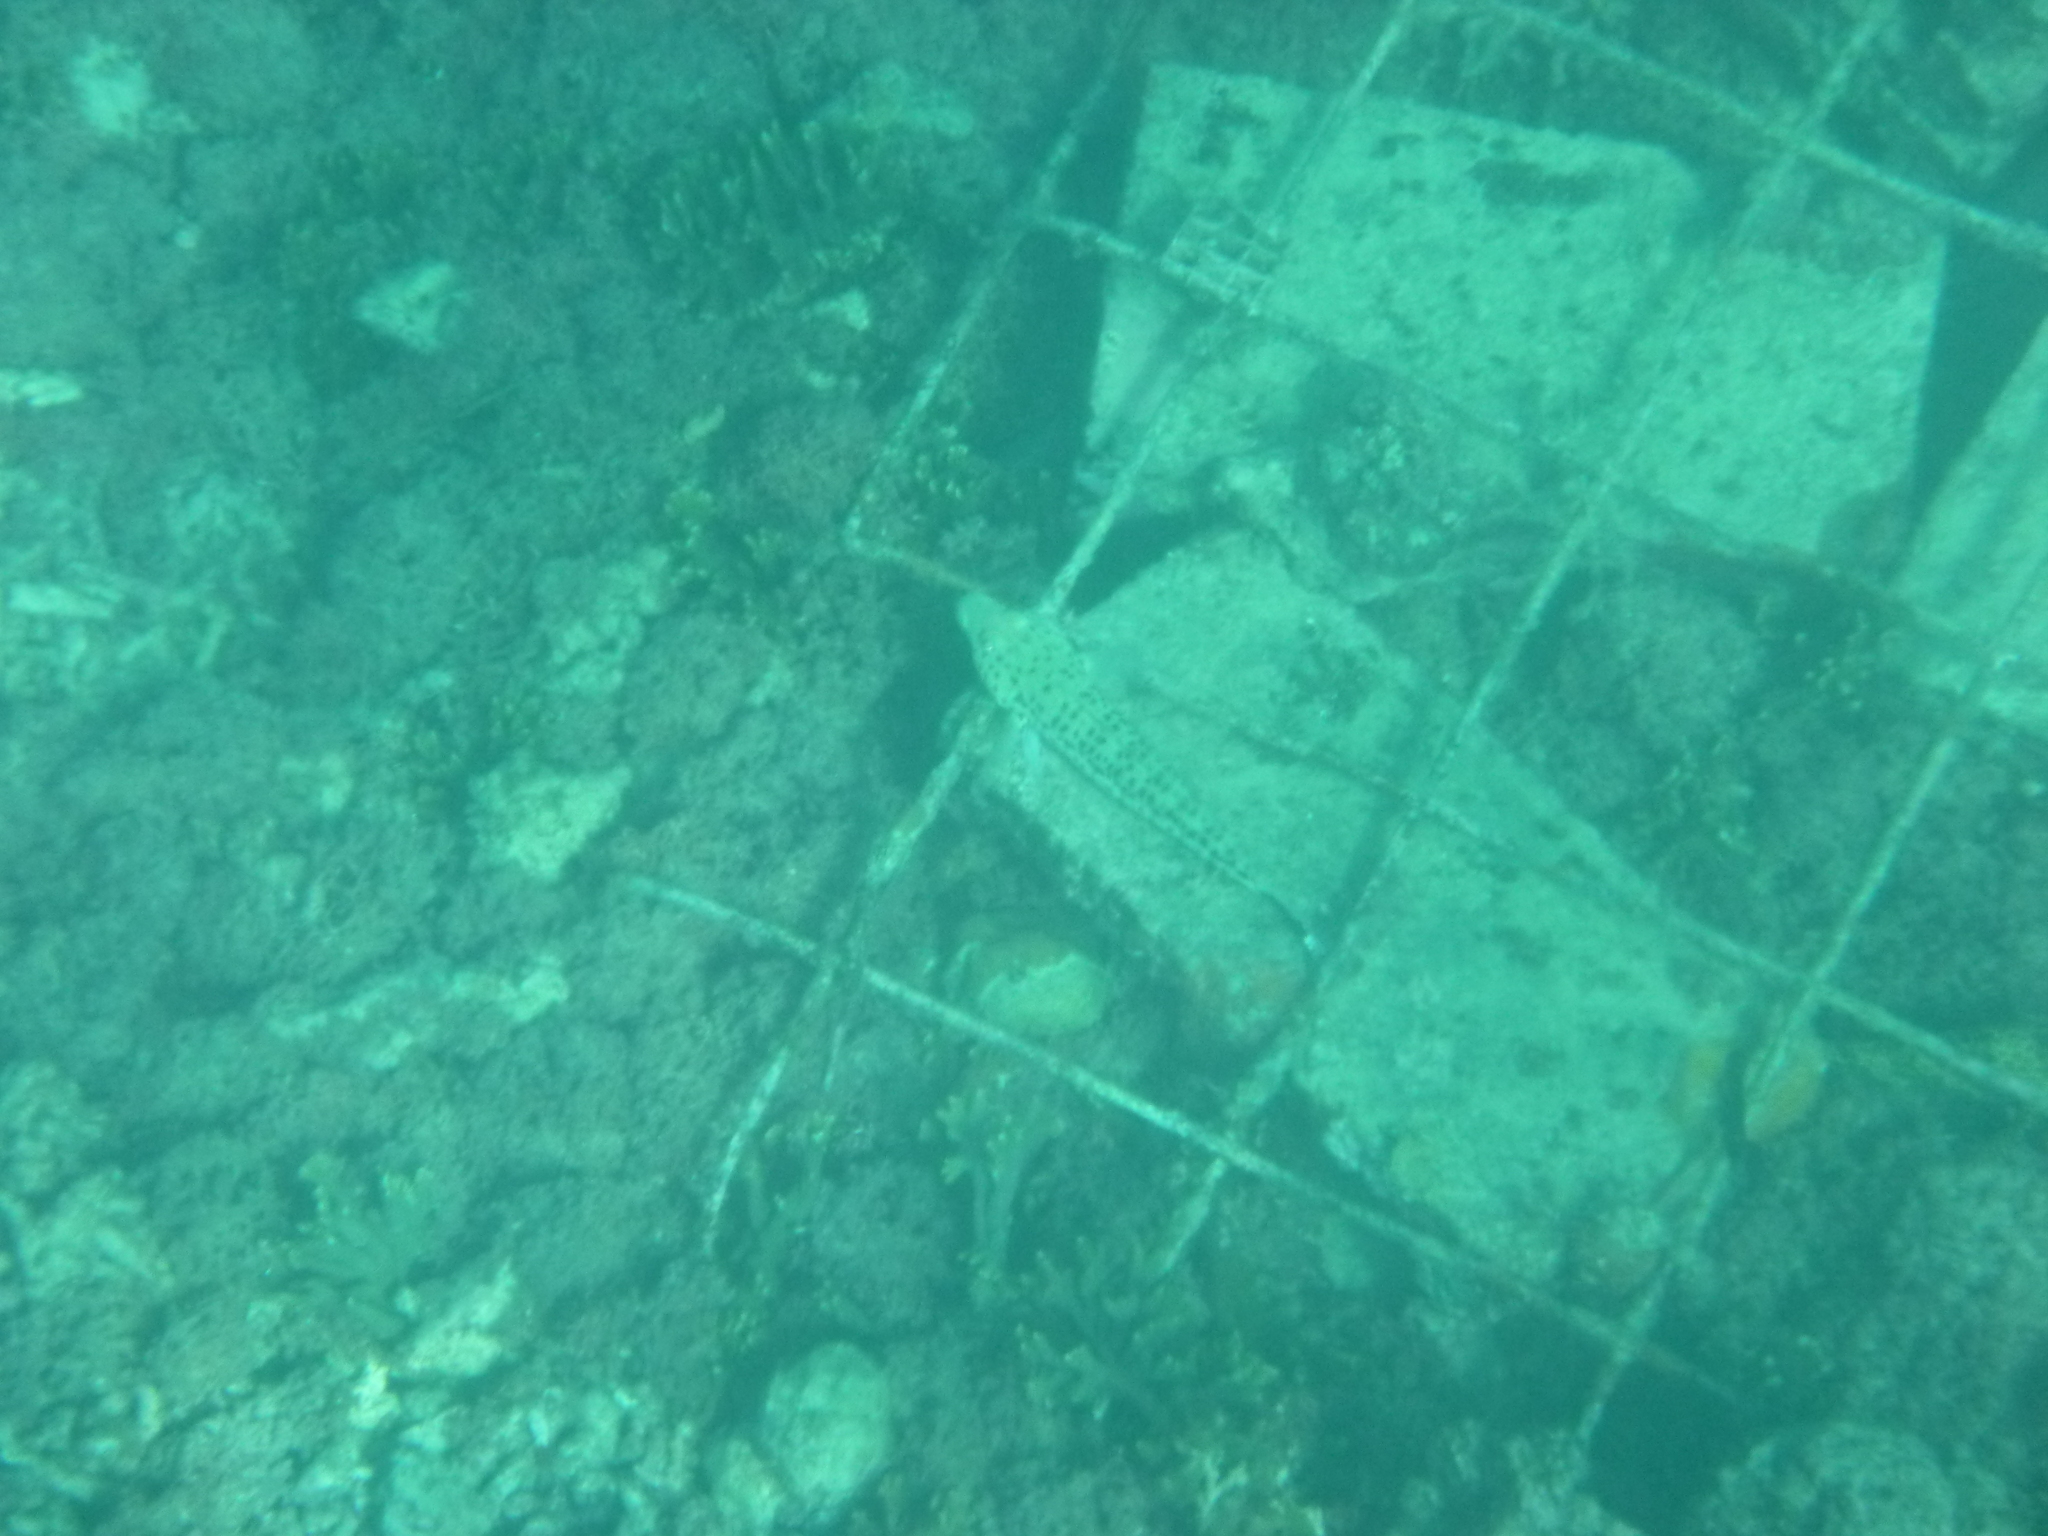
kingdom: Animalia
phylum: Chordata
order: Perciformes
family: Pinguipedidae
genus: Parapercis
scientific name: Parapercis xanthogramma
